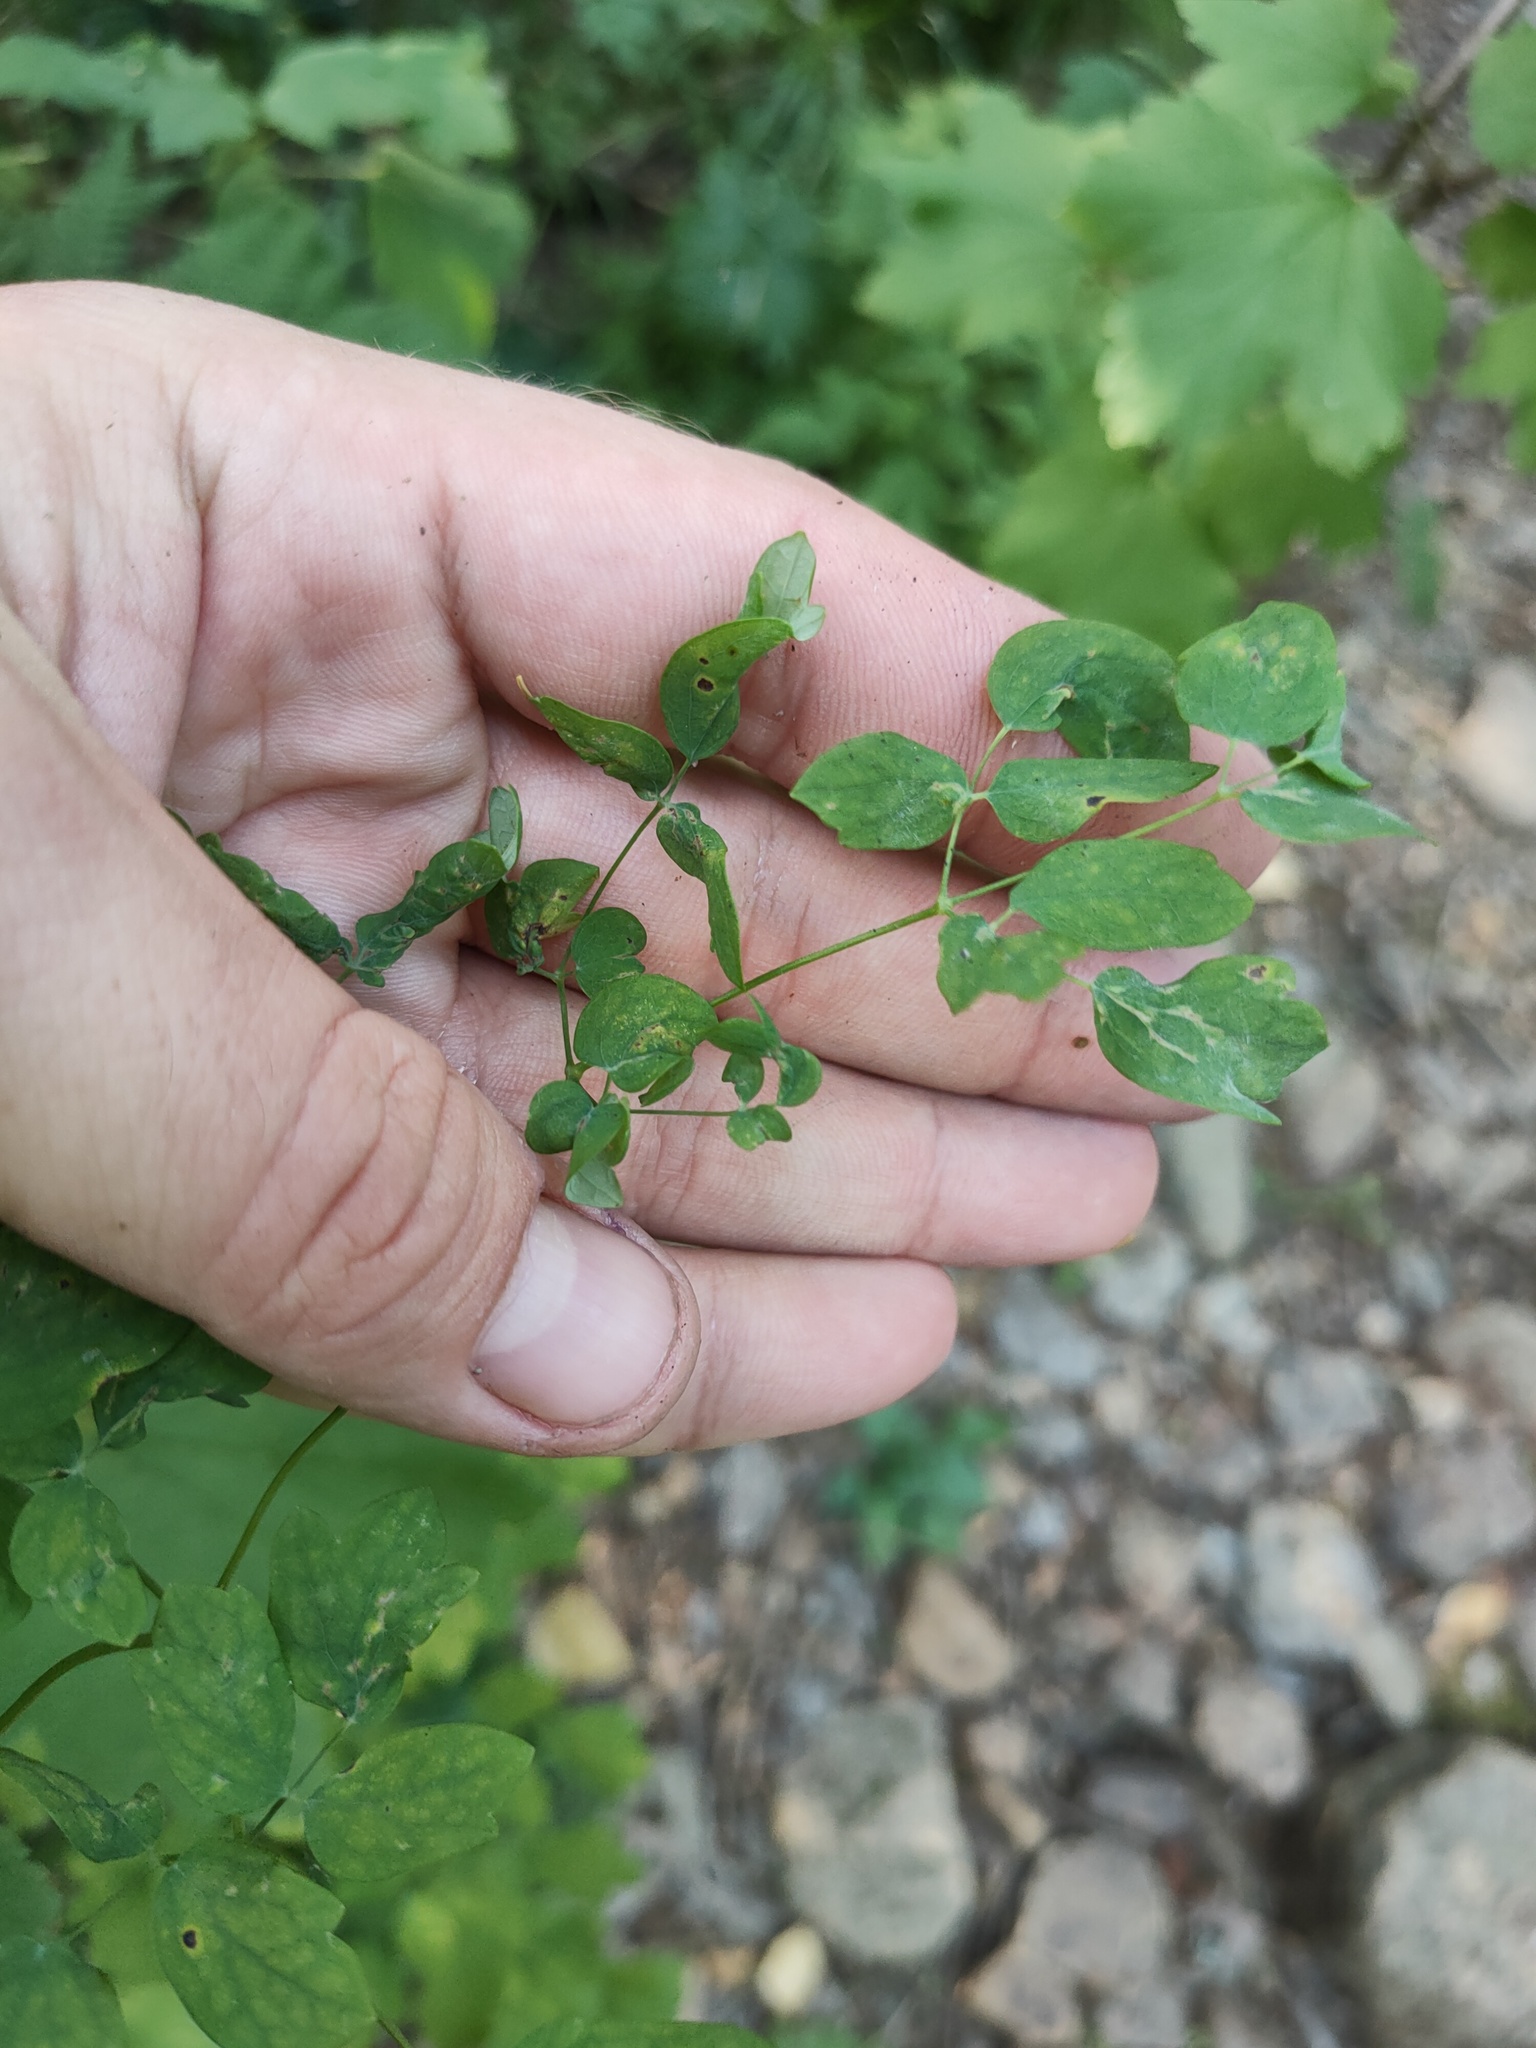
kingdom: Plantae
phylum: Tracheophyta
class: Magnoliopsida
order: Ranunculales
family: Ranunculaceae
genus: Thalictrum
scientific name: Thalictrum minus
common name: Lesser meadow-rue
